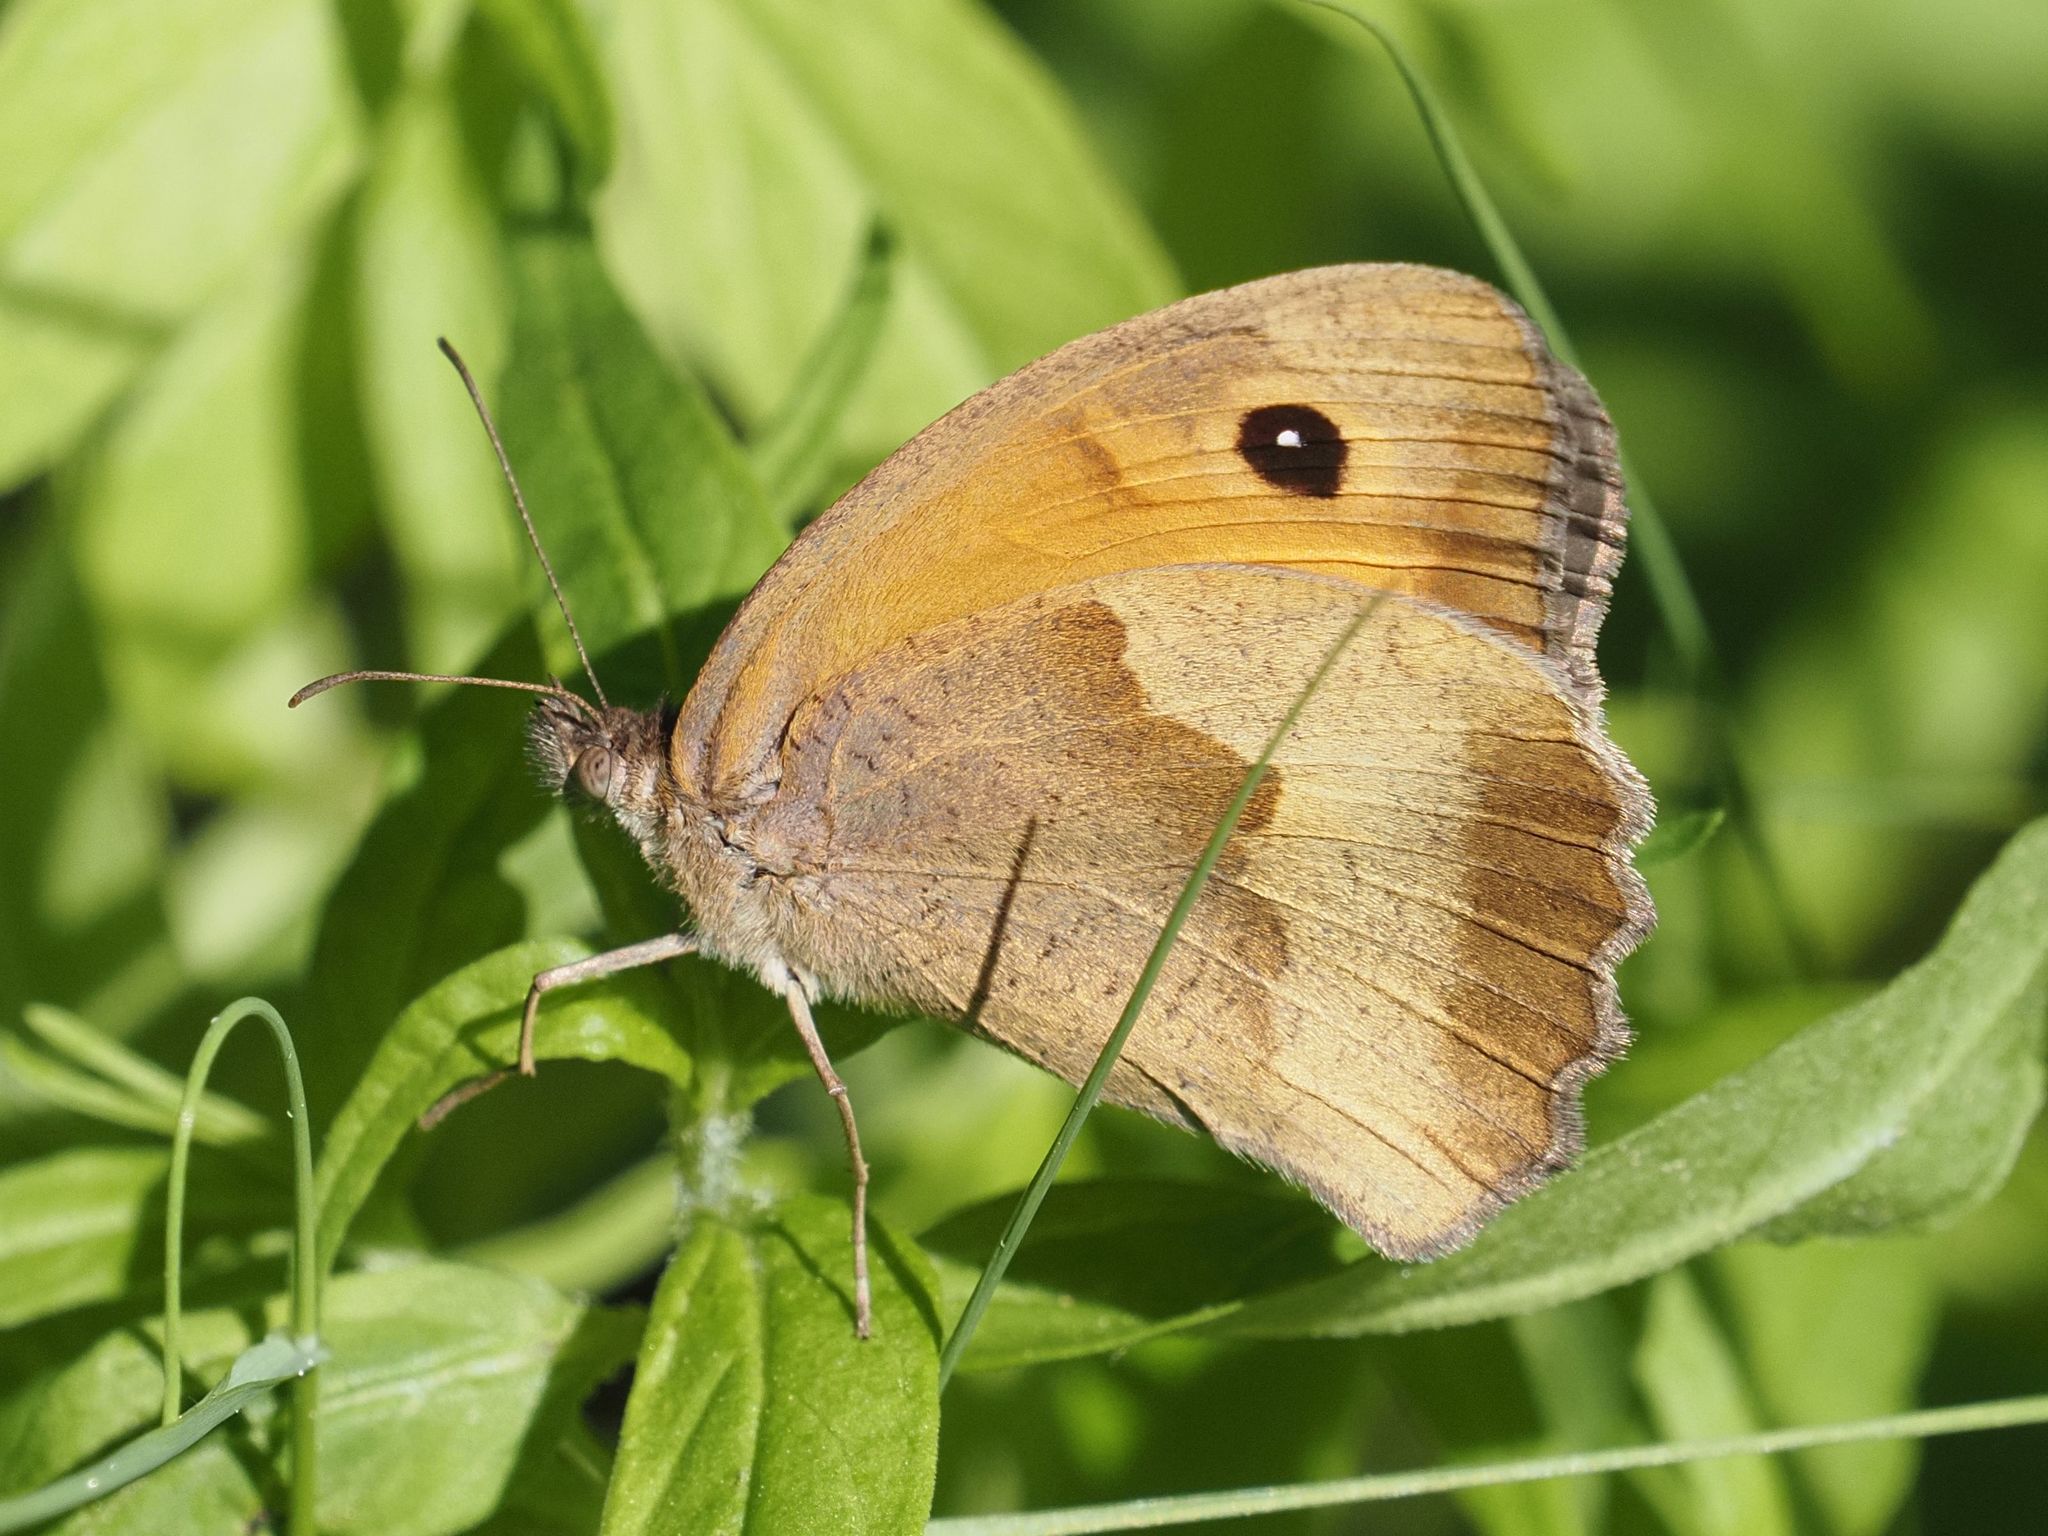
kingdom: Animalia
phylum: Arthropoda
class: Insecta
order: Lepidoptera
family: Nymphalidae
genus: Maniola
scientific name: Maniola jurtina
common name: Meadow brown
